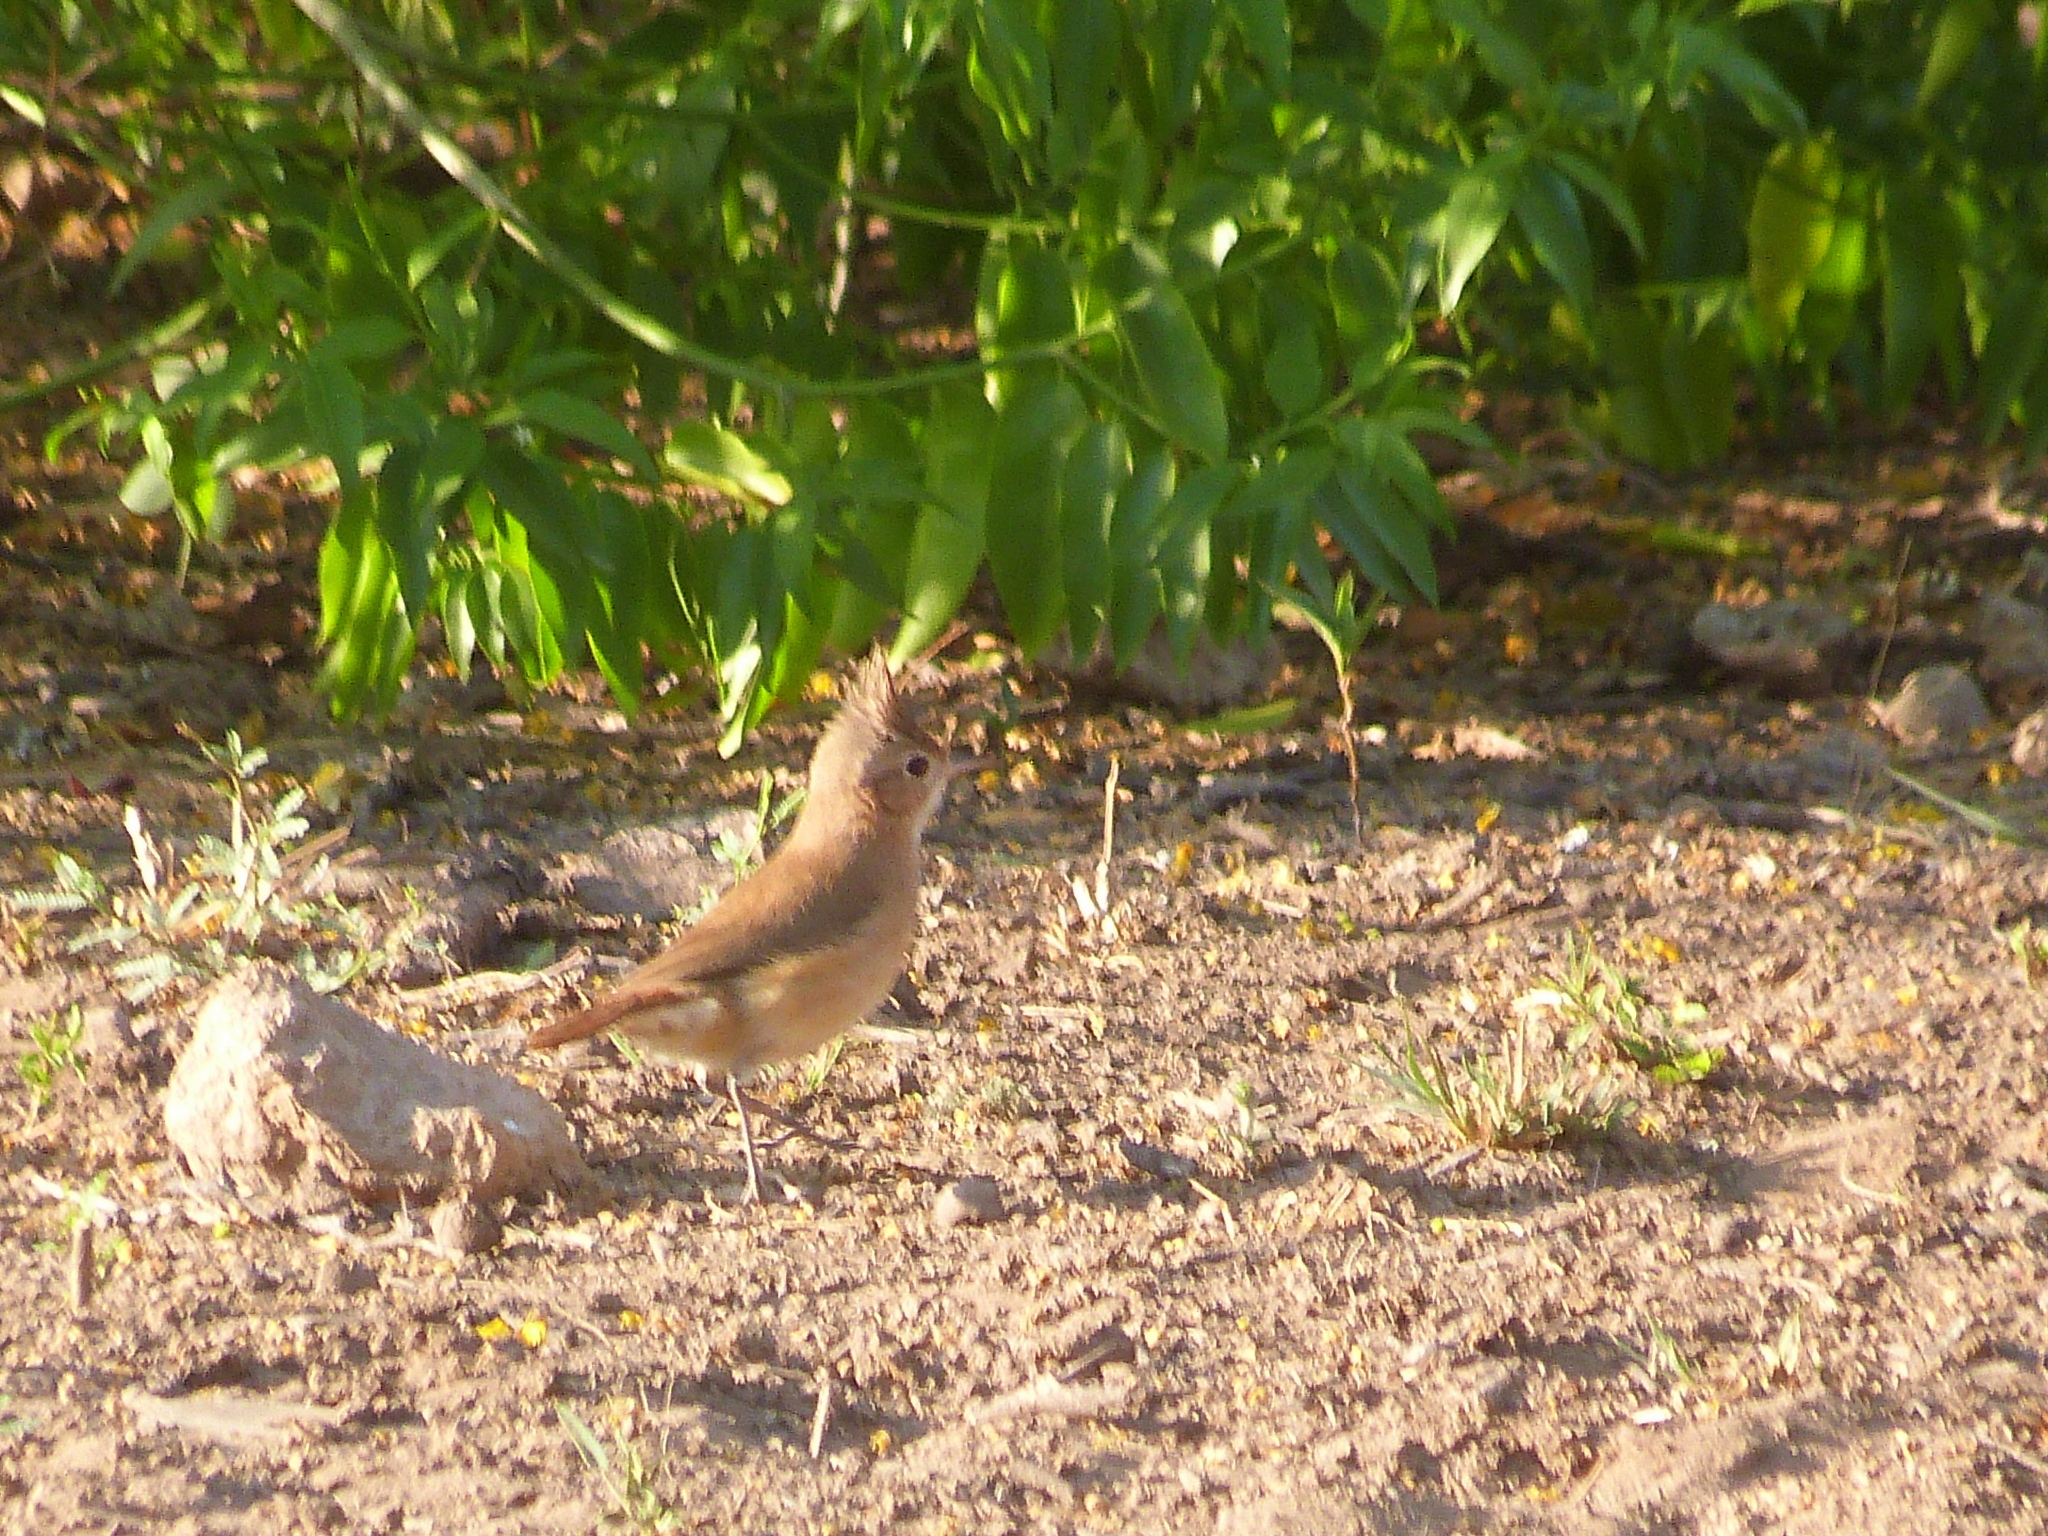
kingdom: Animalia
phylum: Chordata
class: Aves
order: Passeriformes
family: Furnariidae
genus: Furnarius
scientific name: Furnarius cristatus
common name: Crested hornero
